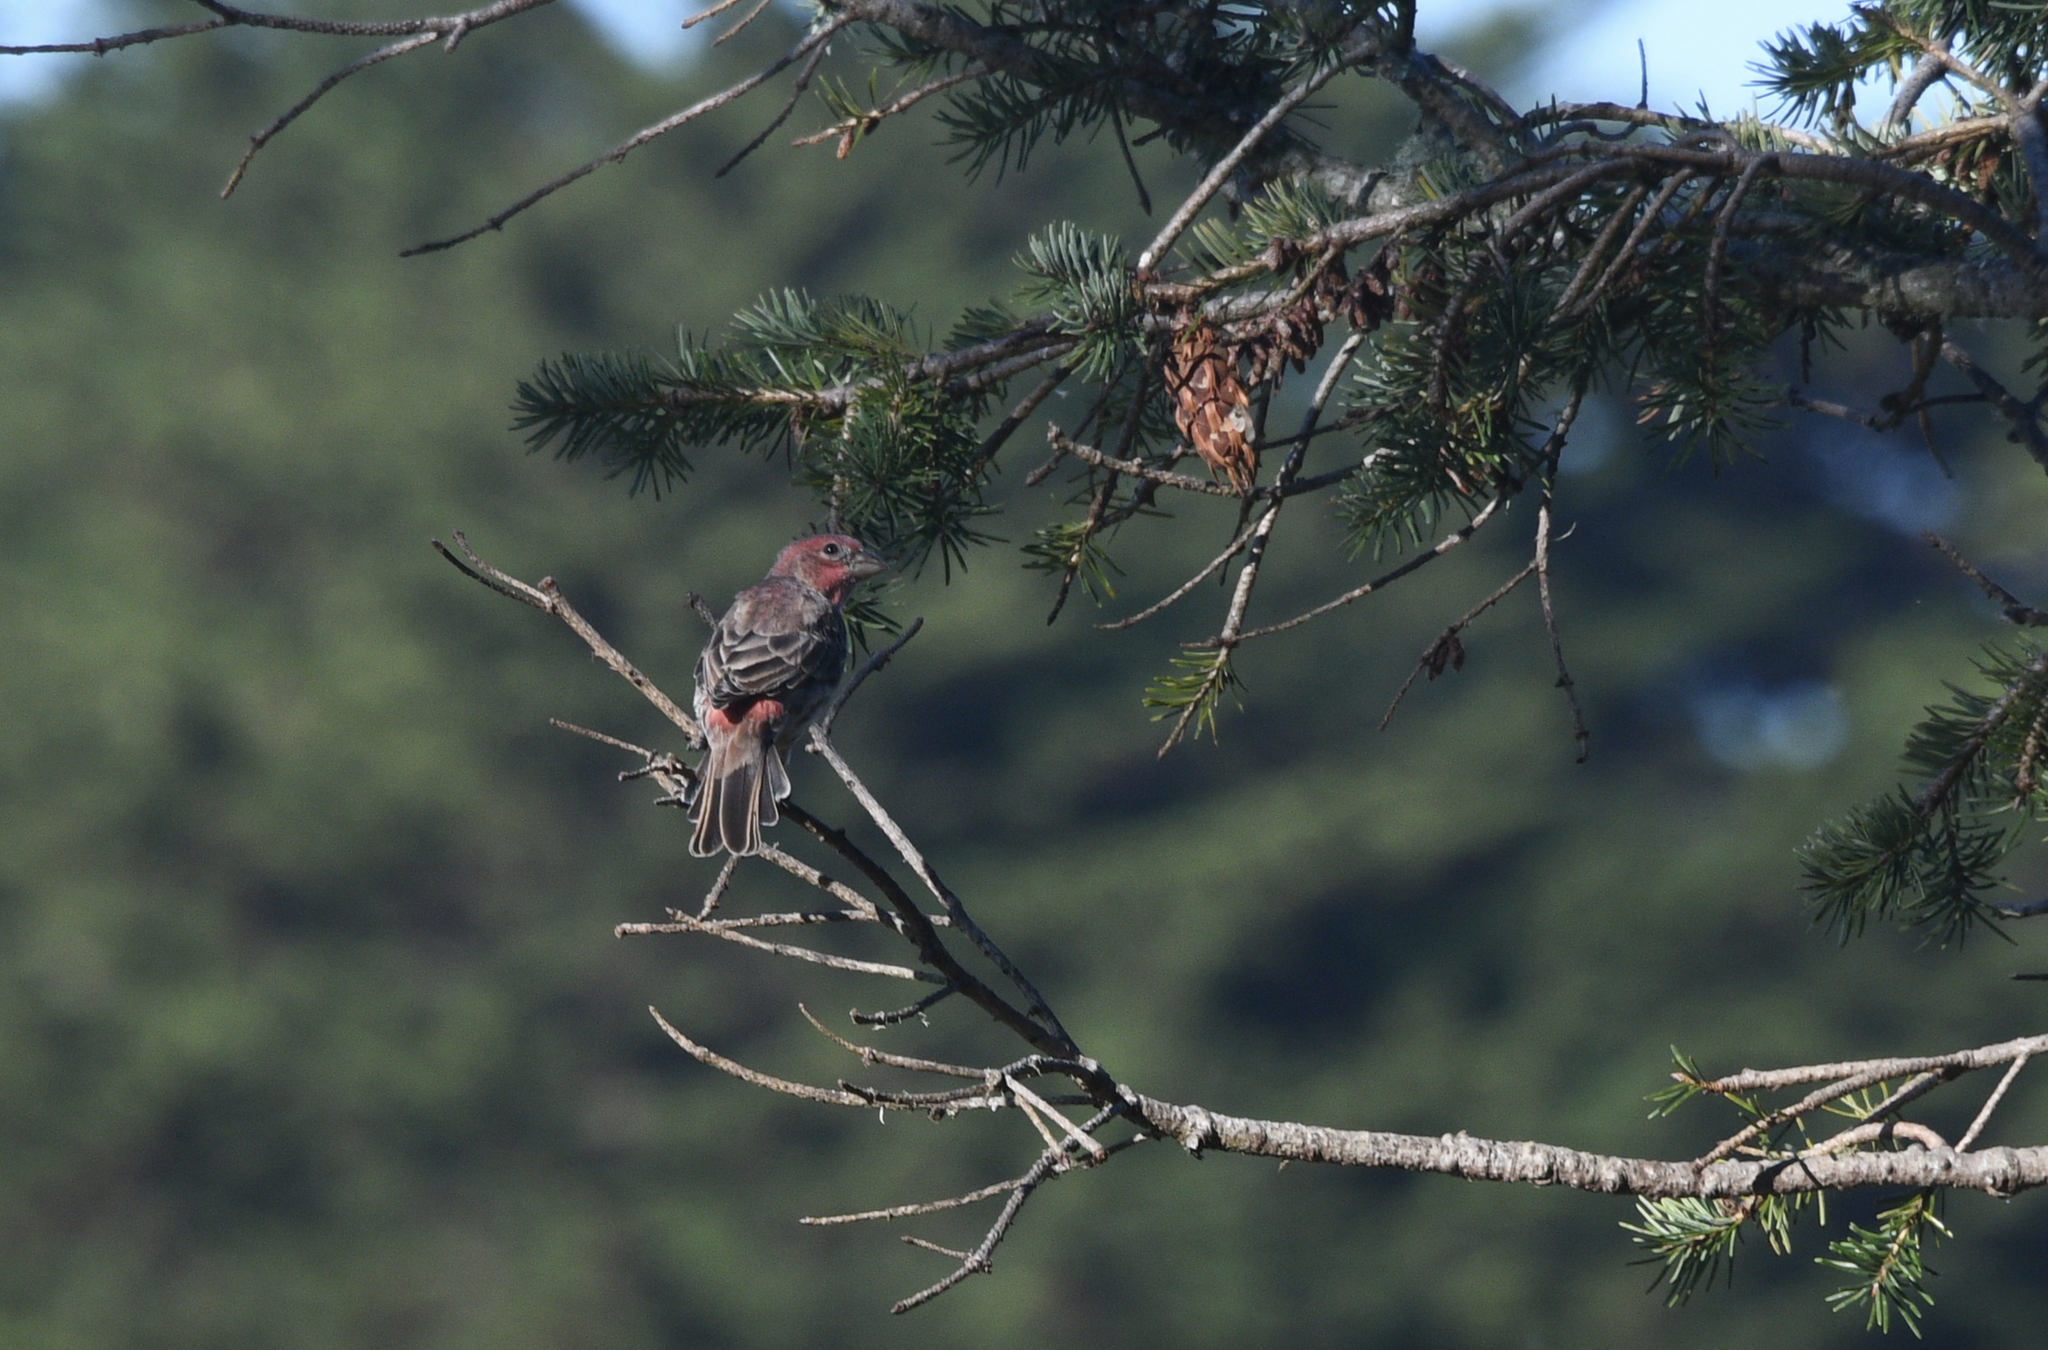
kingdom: Animalia
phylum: Chordata
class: Aves
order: Passeriformes
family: Fringillidae
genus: Haemorhous
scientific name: Haemorhous mexicanus
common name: House finch
